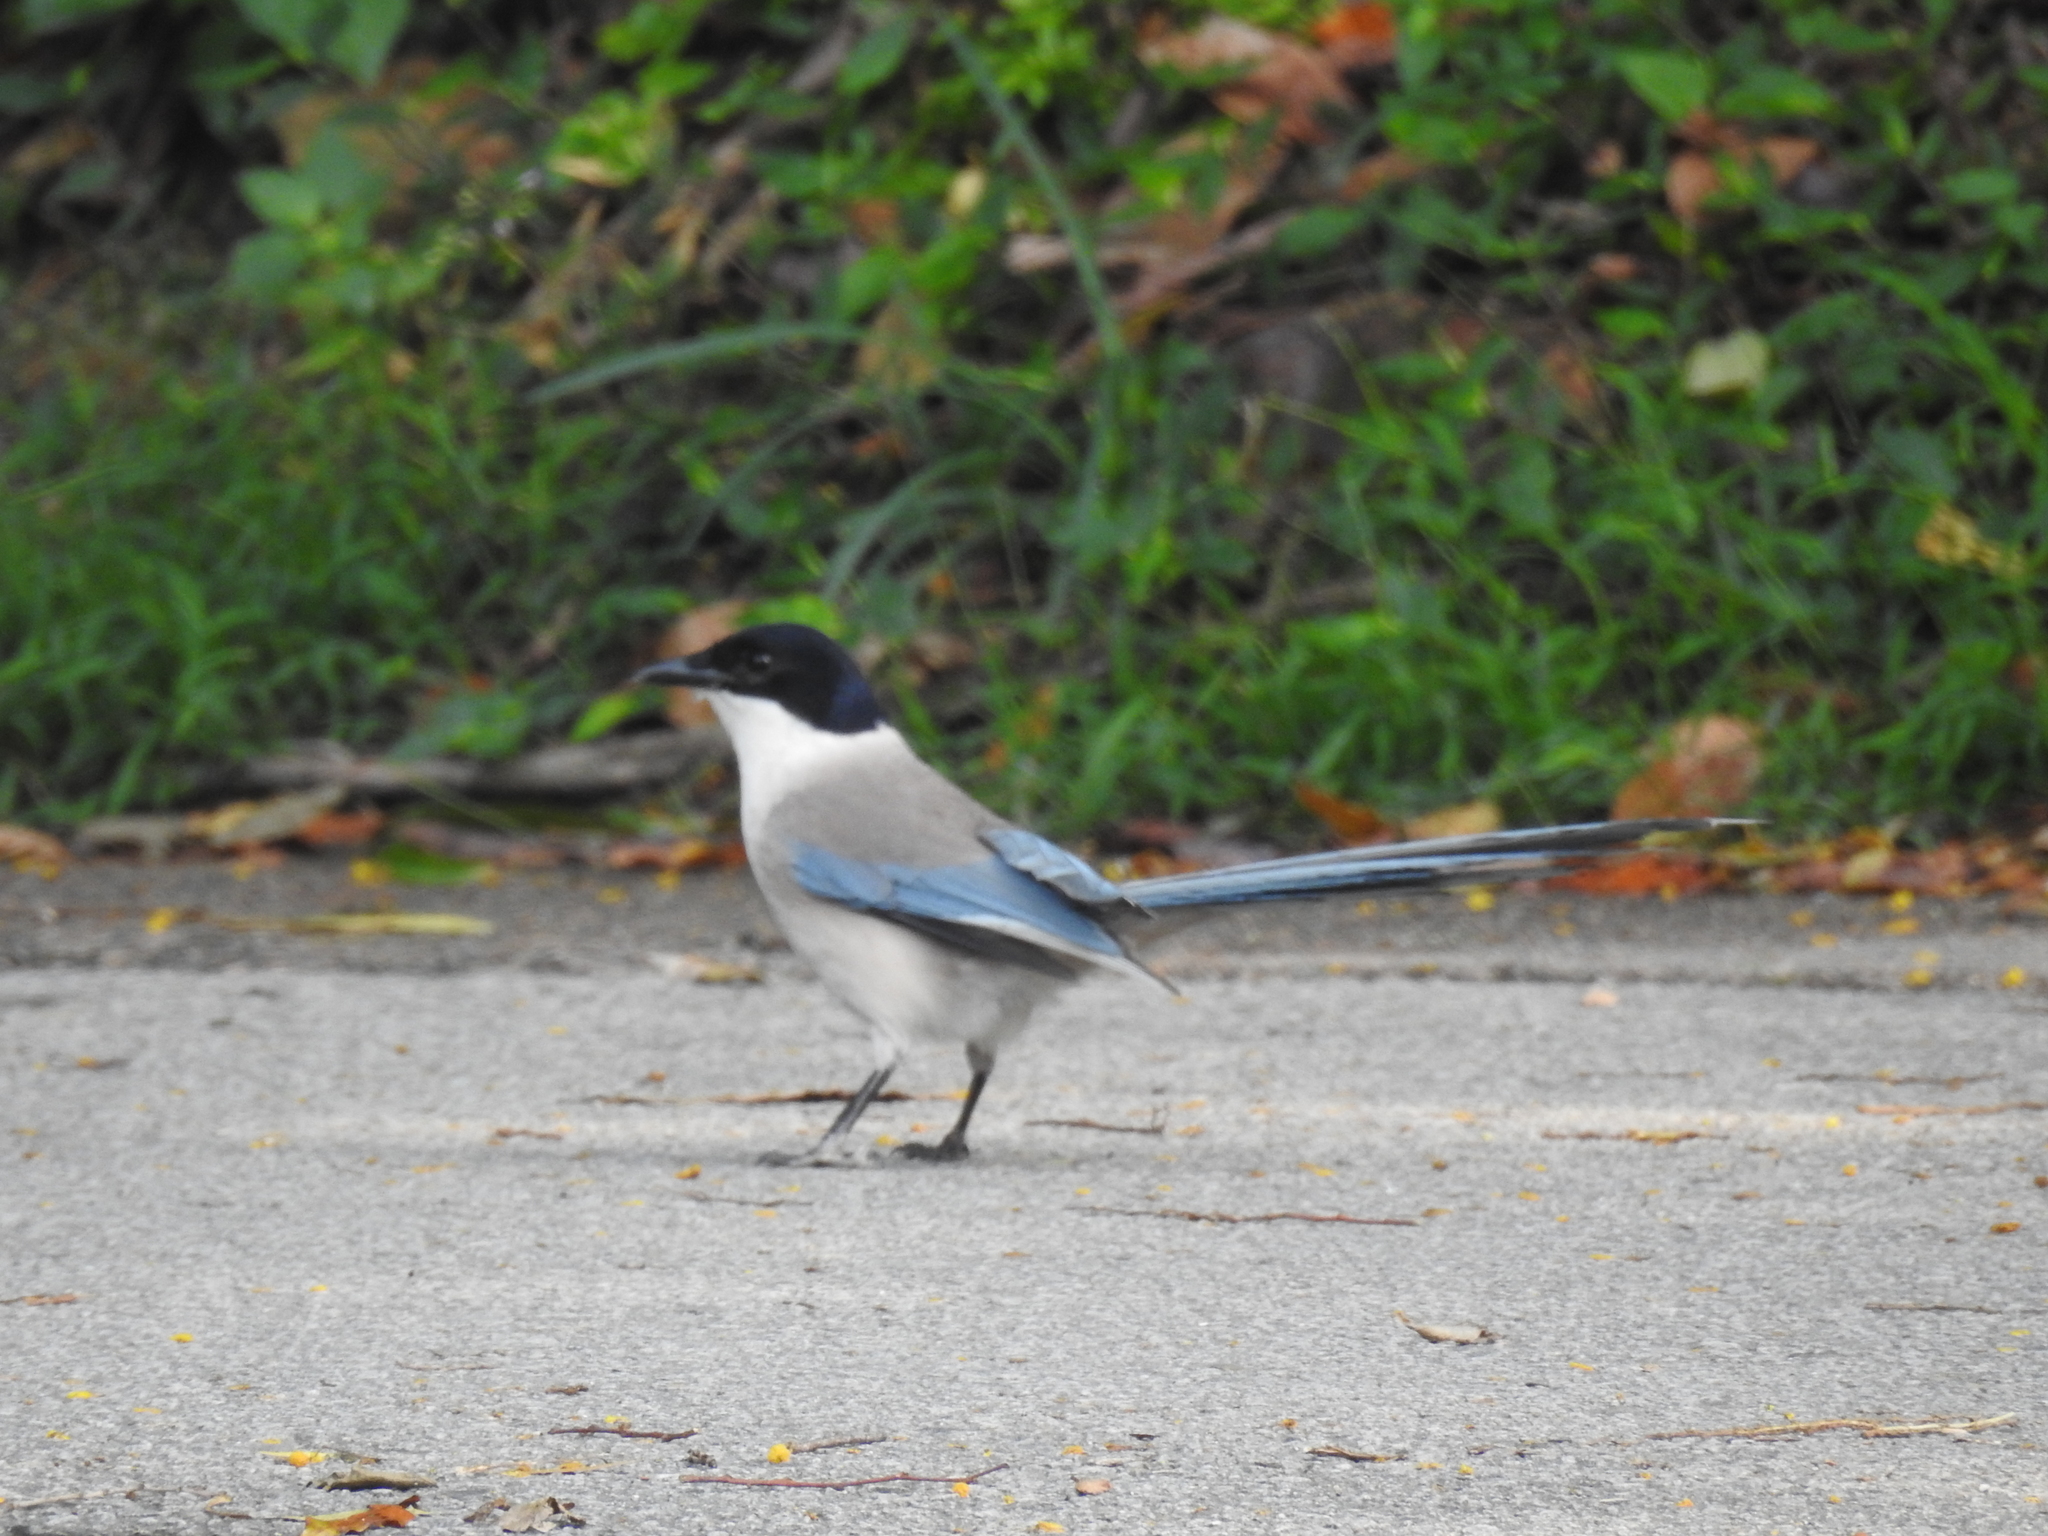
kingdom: Animalia
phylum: Chordata
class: Aves
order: Passeriformes
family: Corvidae
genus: Cyanopica
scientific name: Cyanopica cyanus
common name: Azure-winged magpie
